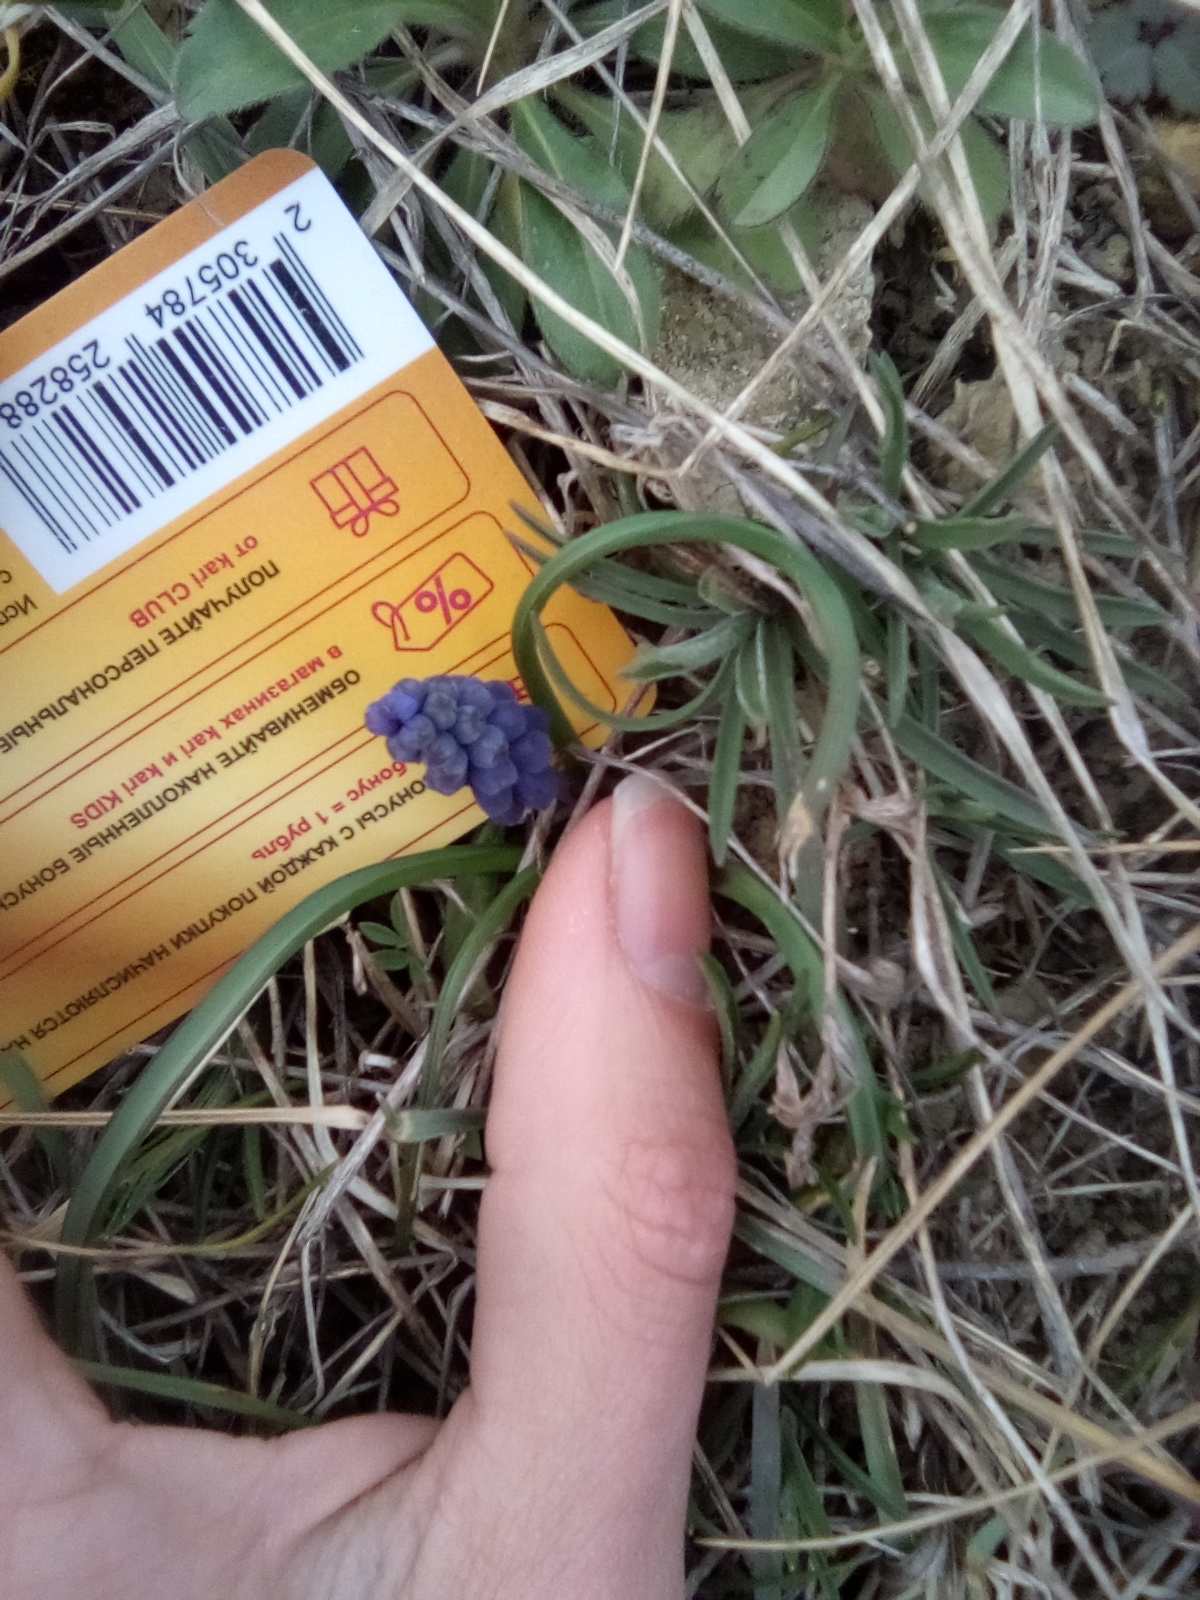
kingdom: Plantae
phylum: Tracheophyta
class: Liliopsida
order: Asparagales
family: Asparagaceae
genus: Muscari
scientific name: Muscari neglectum
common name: Grape-hyacinth
